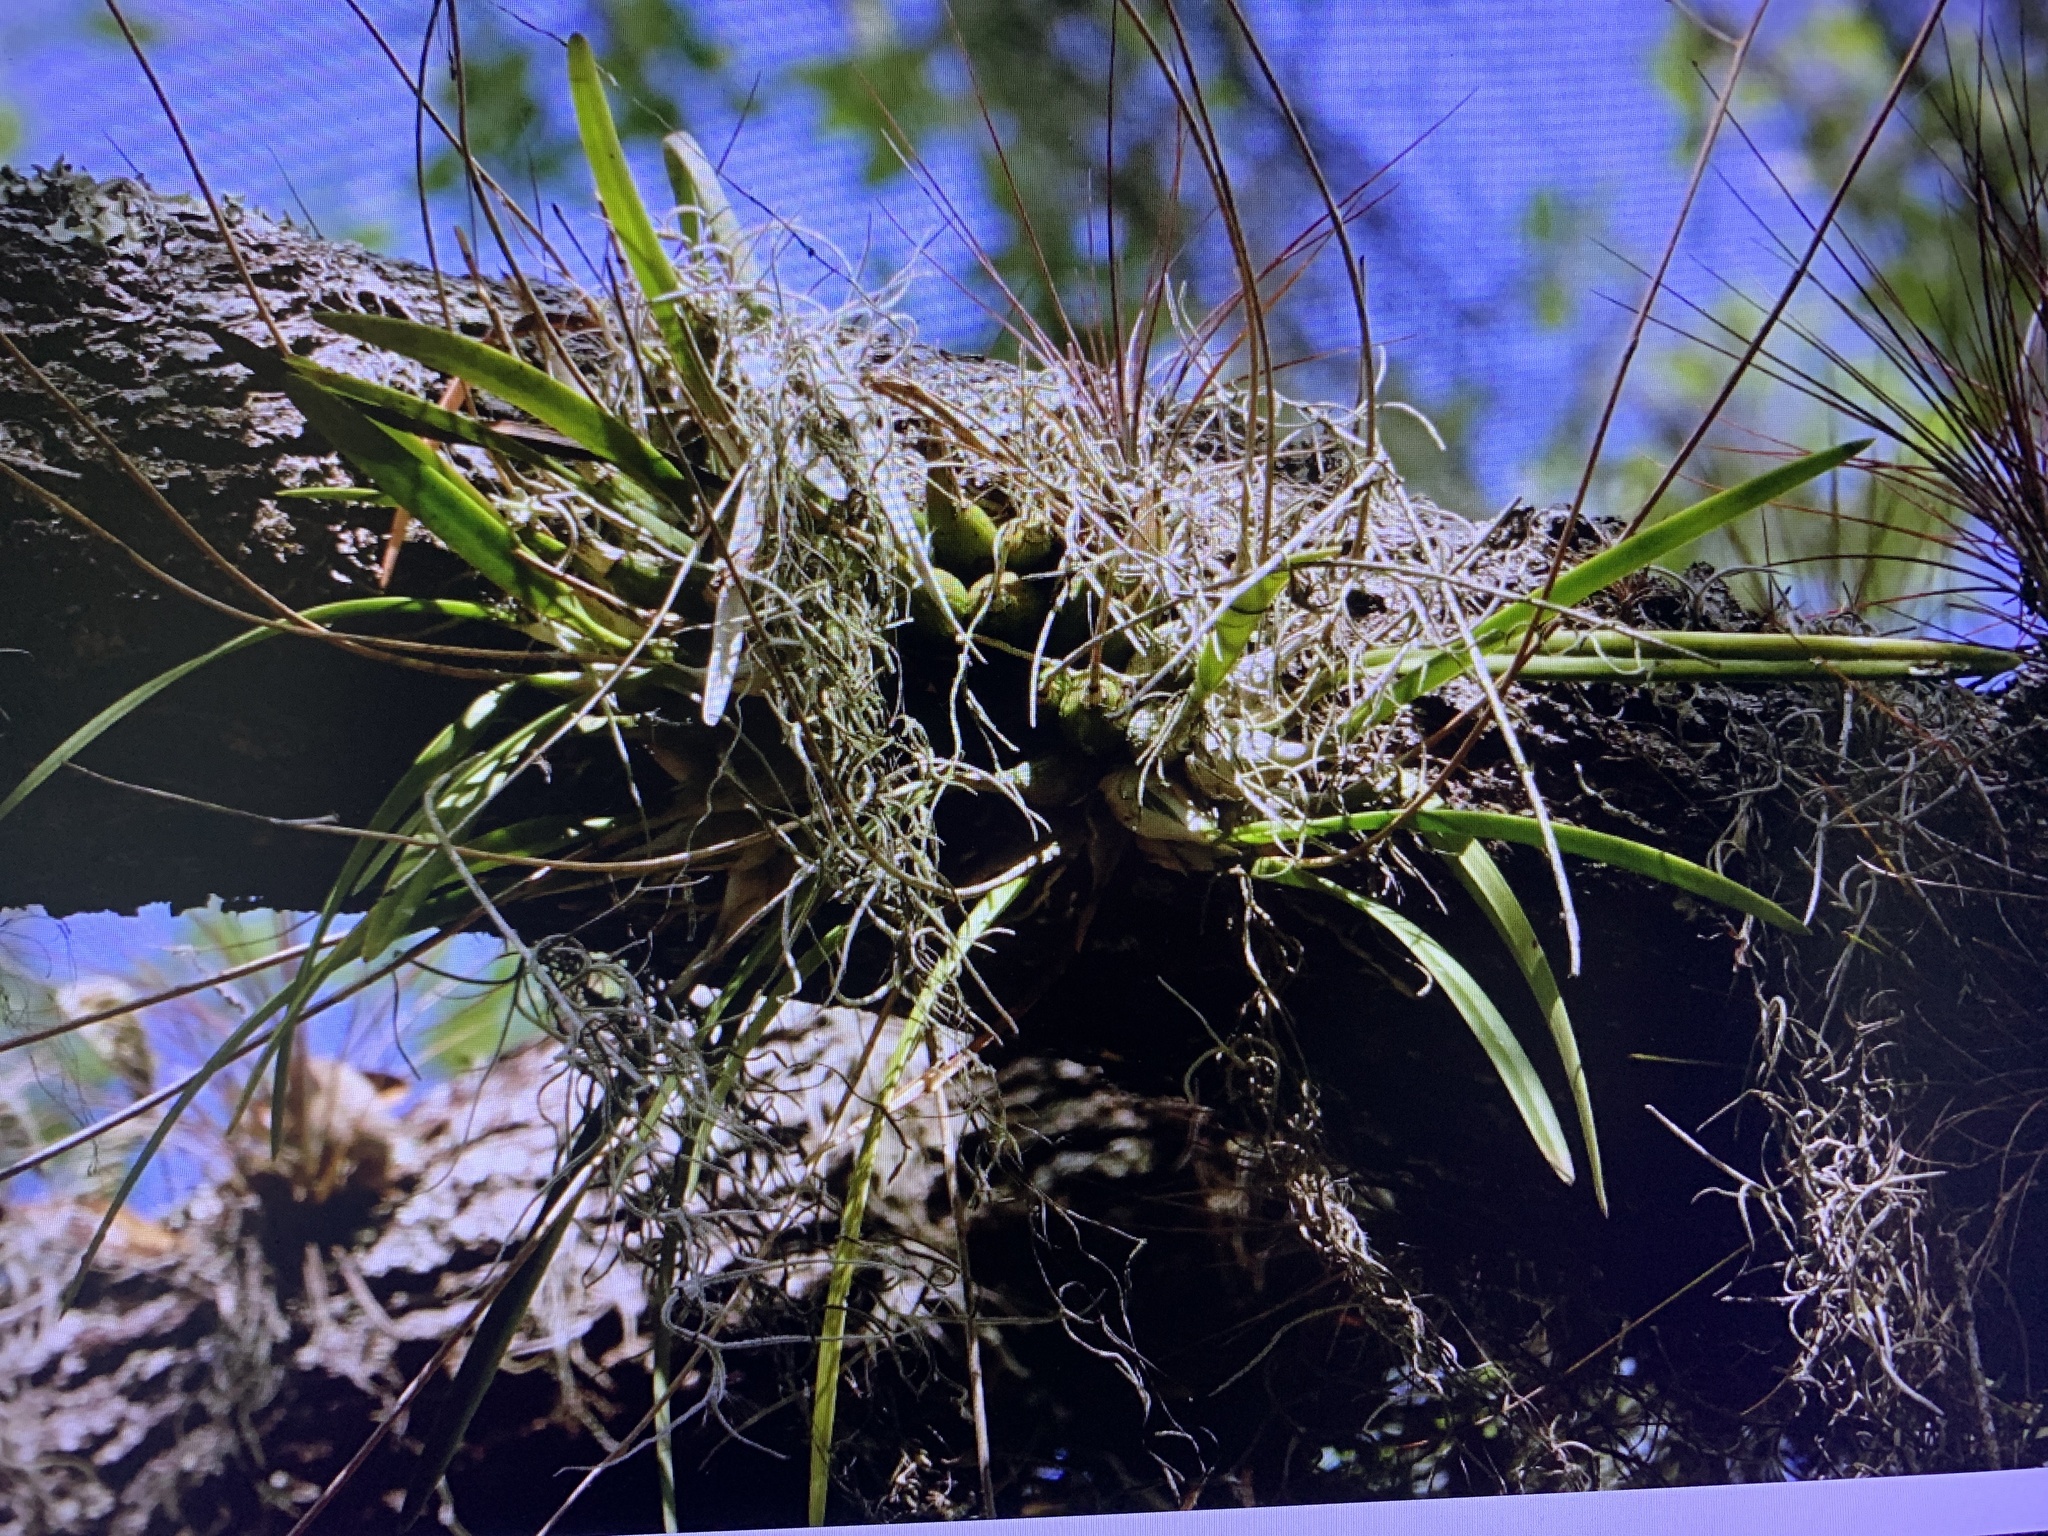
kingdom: Plantae
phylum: Tracheophyta
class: Liliopsida
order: Asparagales
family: Orchidaceae
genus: Encyclia
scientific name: Encyclia tampensis
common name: Florida butterfly orchid
